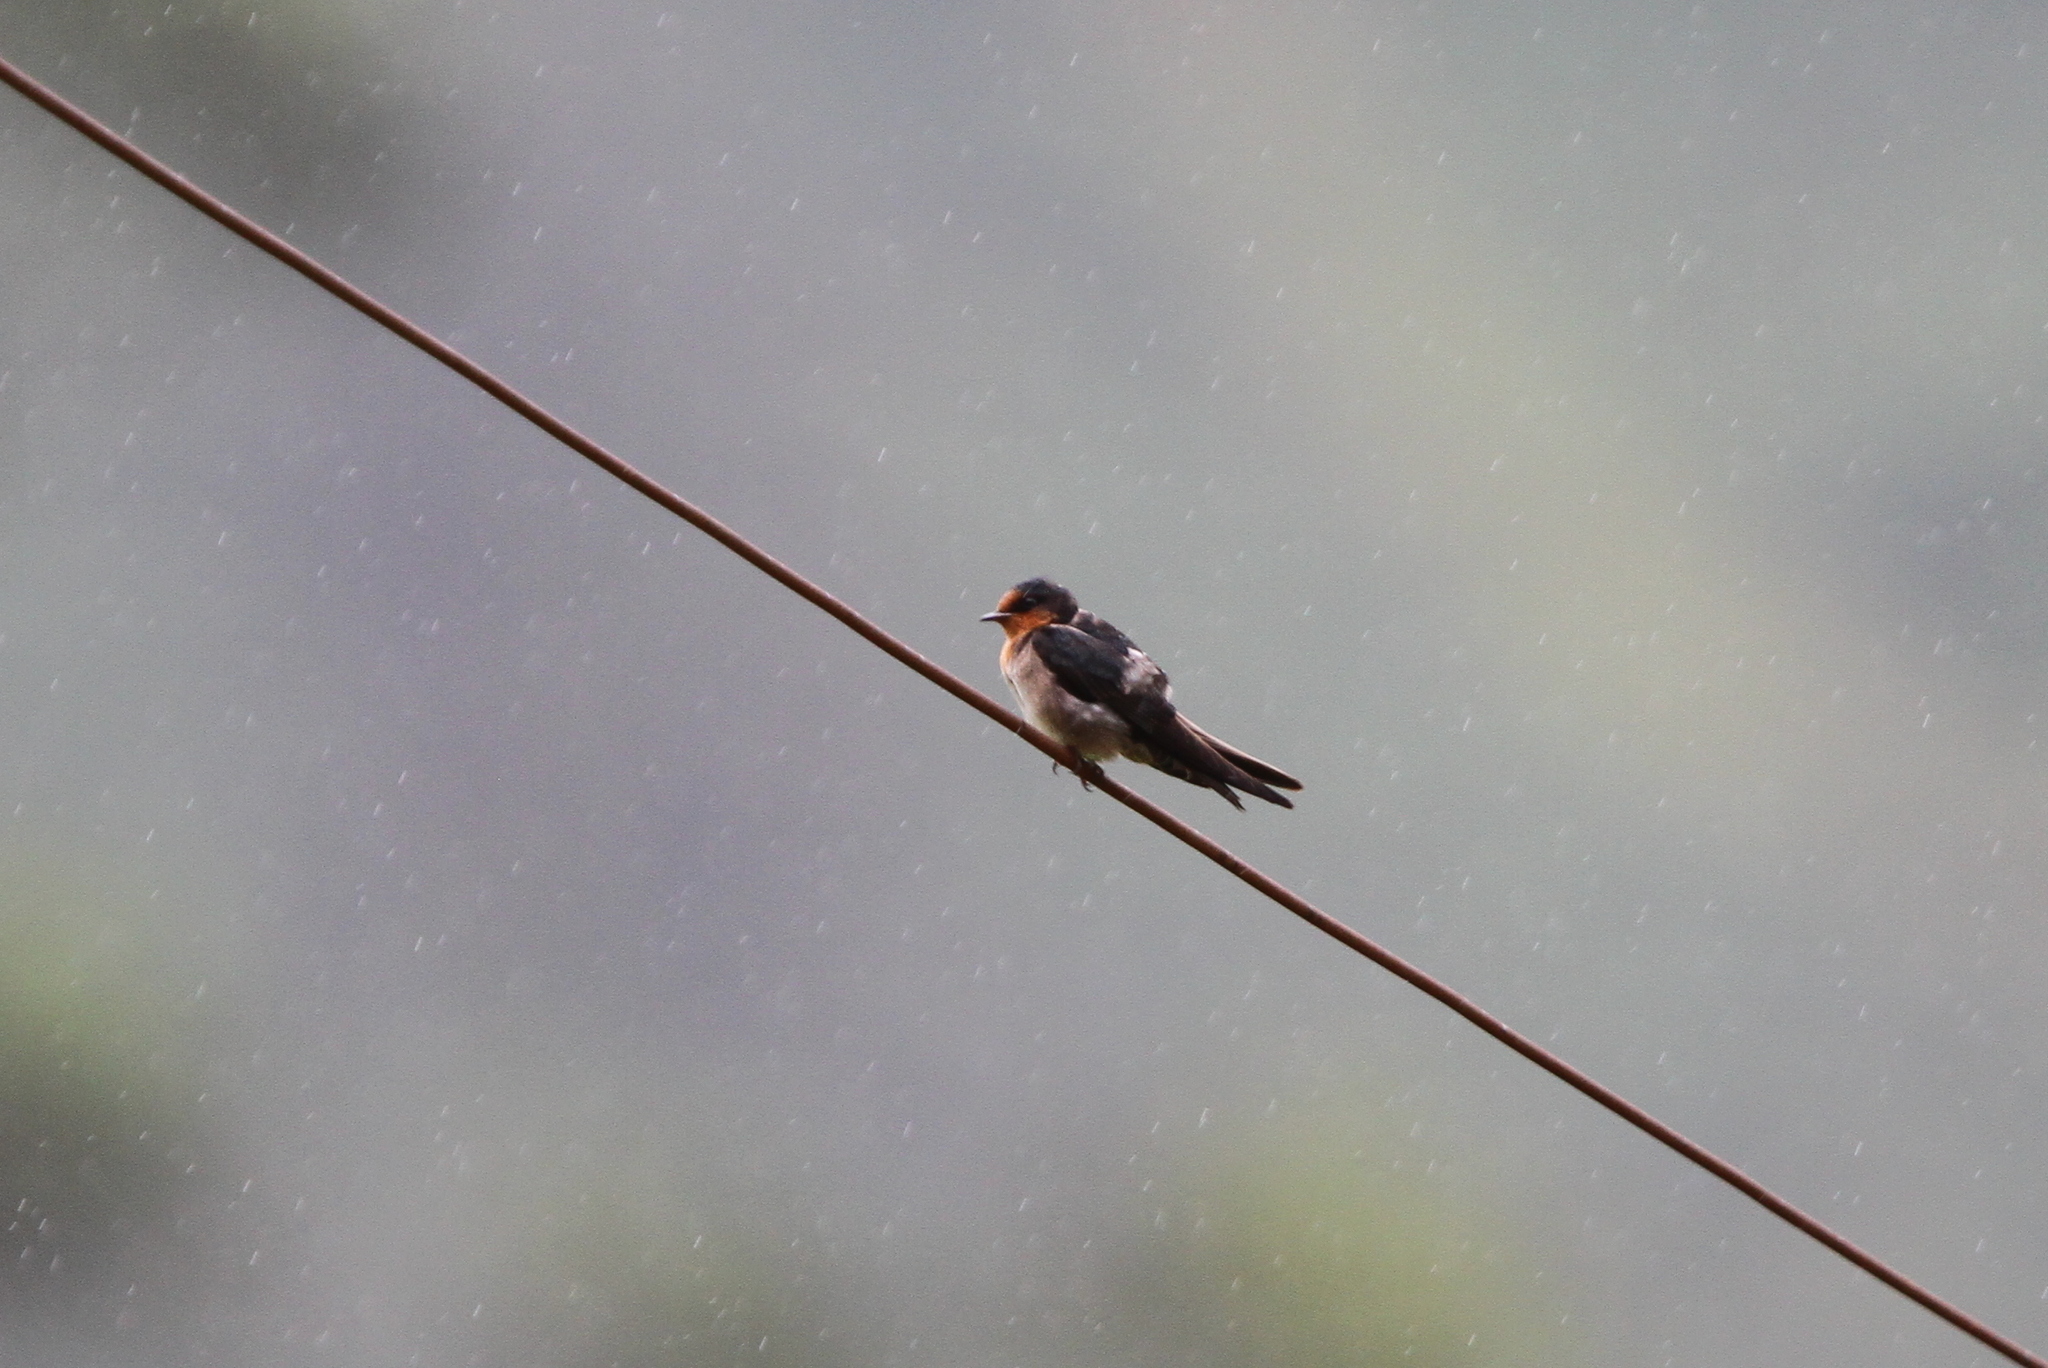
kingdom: Animalia
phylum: Chordata
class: Aves
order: Passeriformes
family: Hirundinidae
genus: Hirundo
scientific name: Hirundo domicola
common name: Hill swallow
